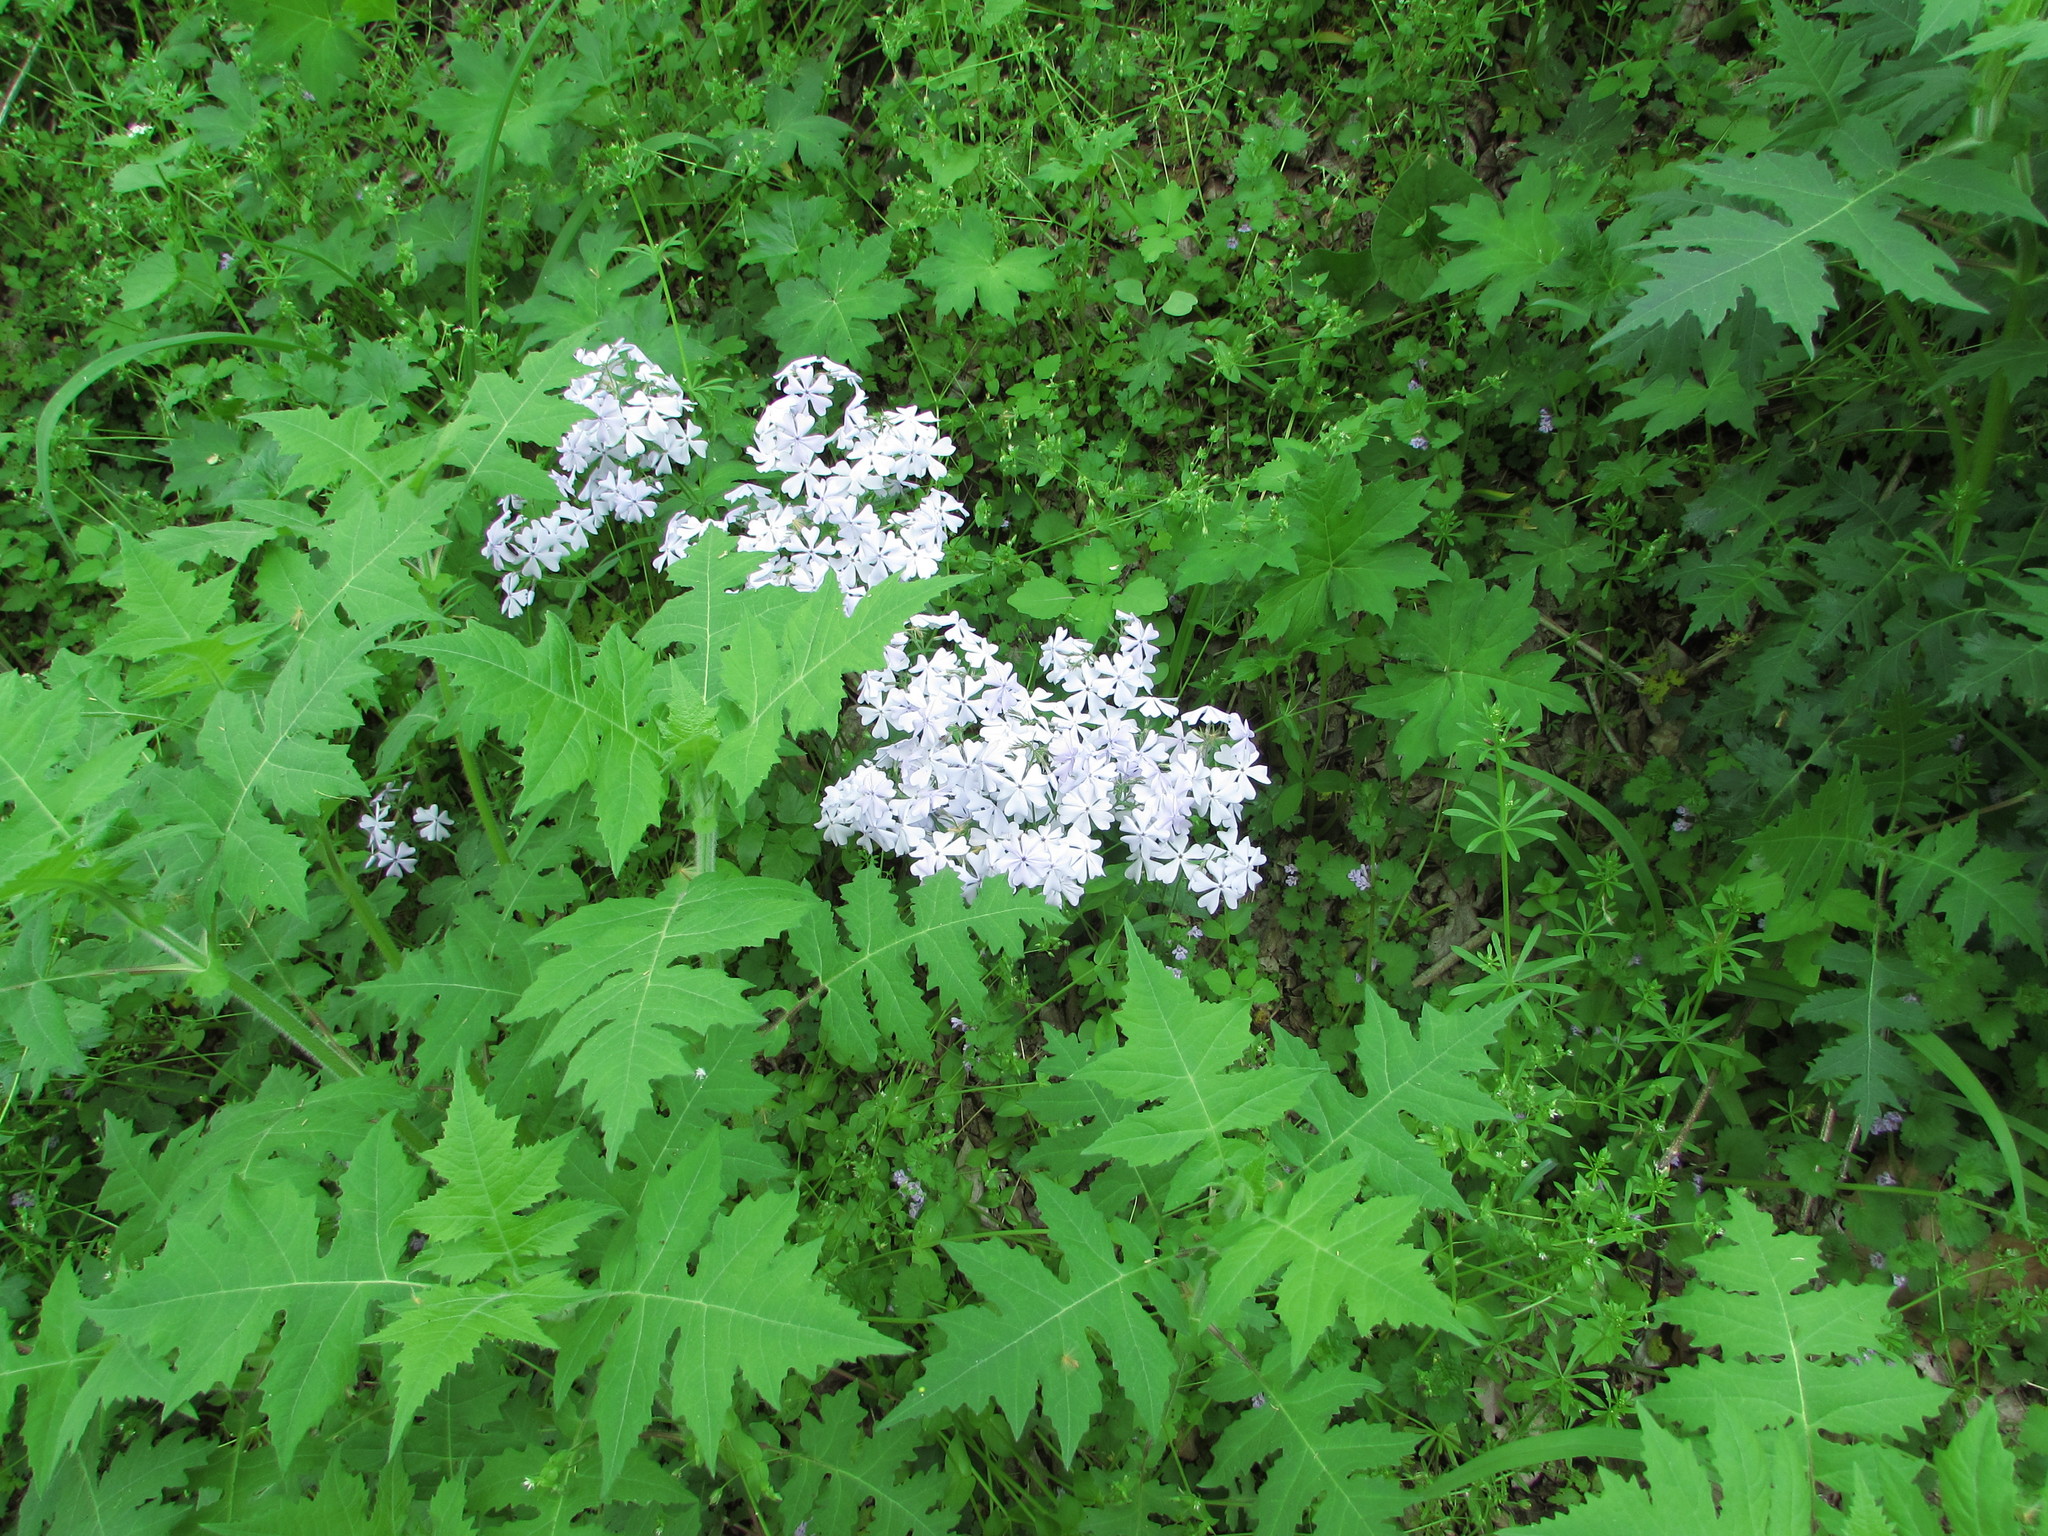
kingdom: Plantae
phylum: Tracheophyta
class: Magnoliopsida
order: Ericales
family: Polemoniaceae
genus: Phlox
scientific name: Phlox divaricata
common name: Blue phlox
